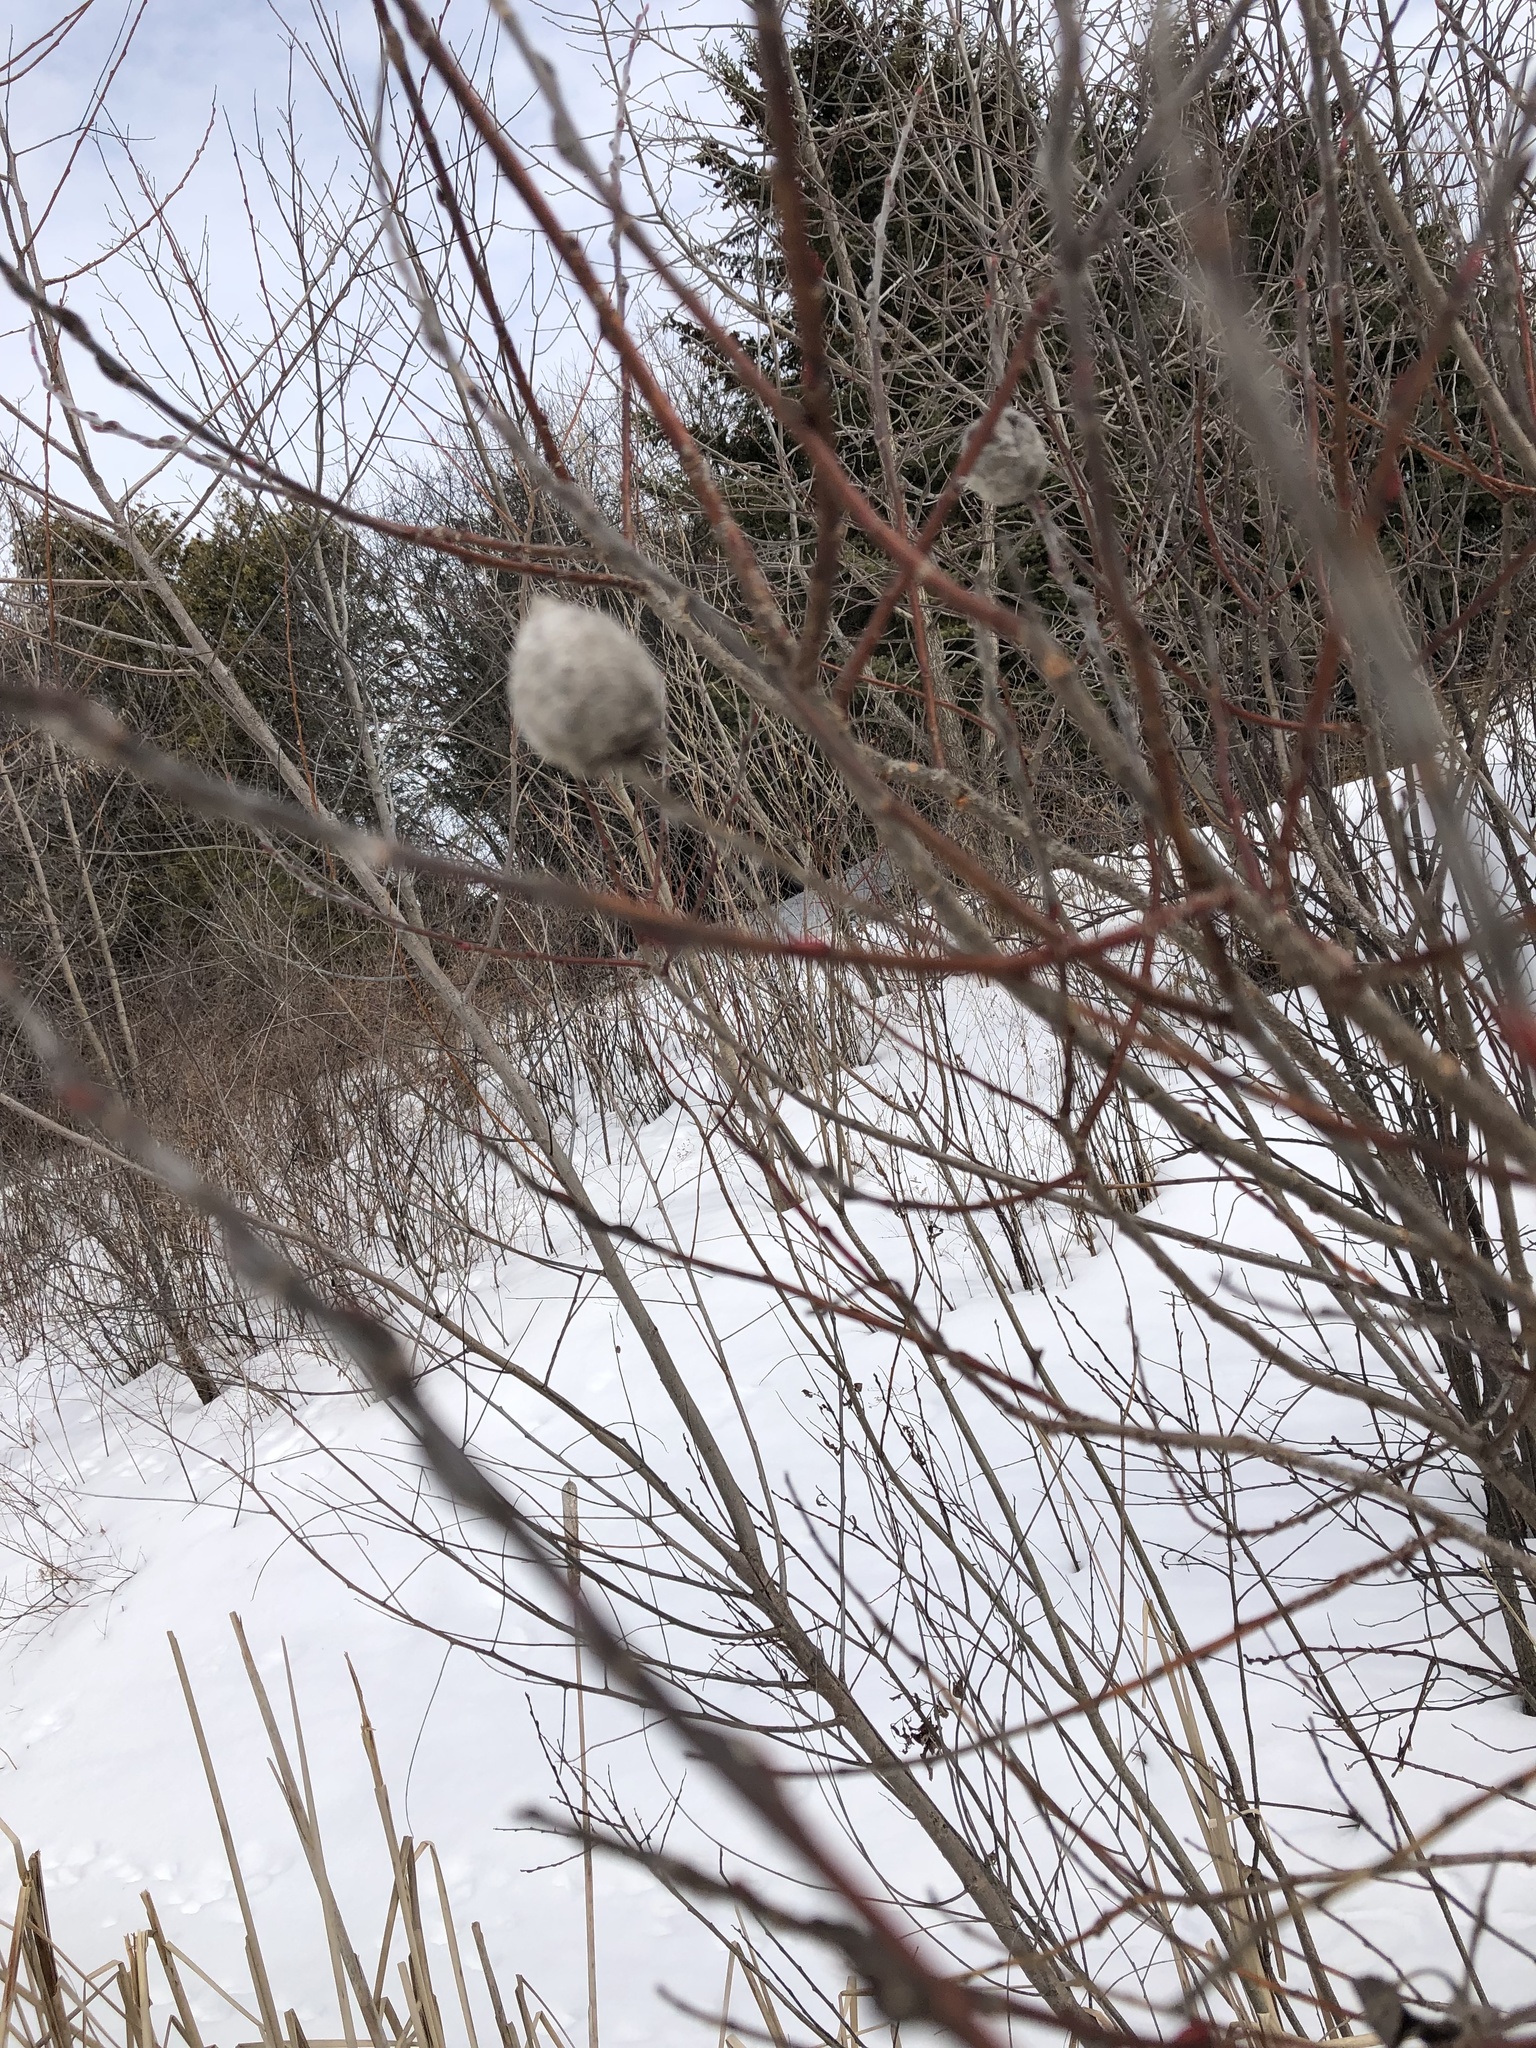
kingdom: Animalia
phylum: Arthropoda
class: Insecta
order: Diptera
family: Cecidomyiidae
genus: Rabdophaga
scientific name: Rabdophaga strobiloides
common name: Willow pinecone gall midge
